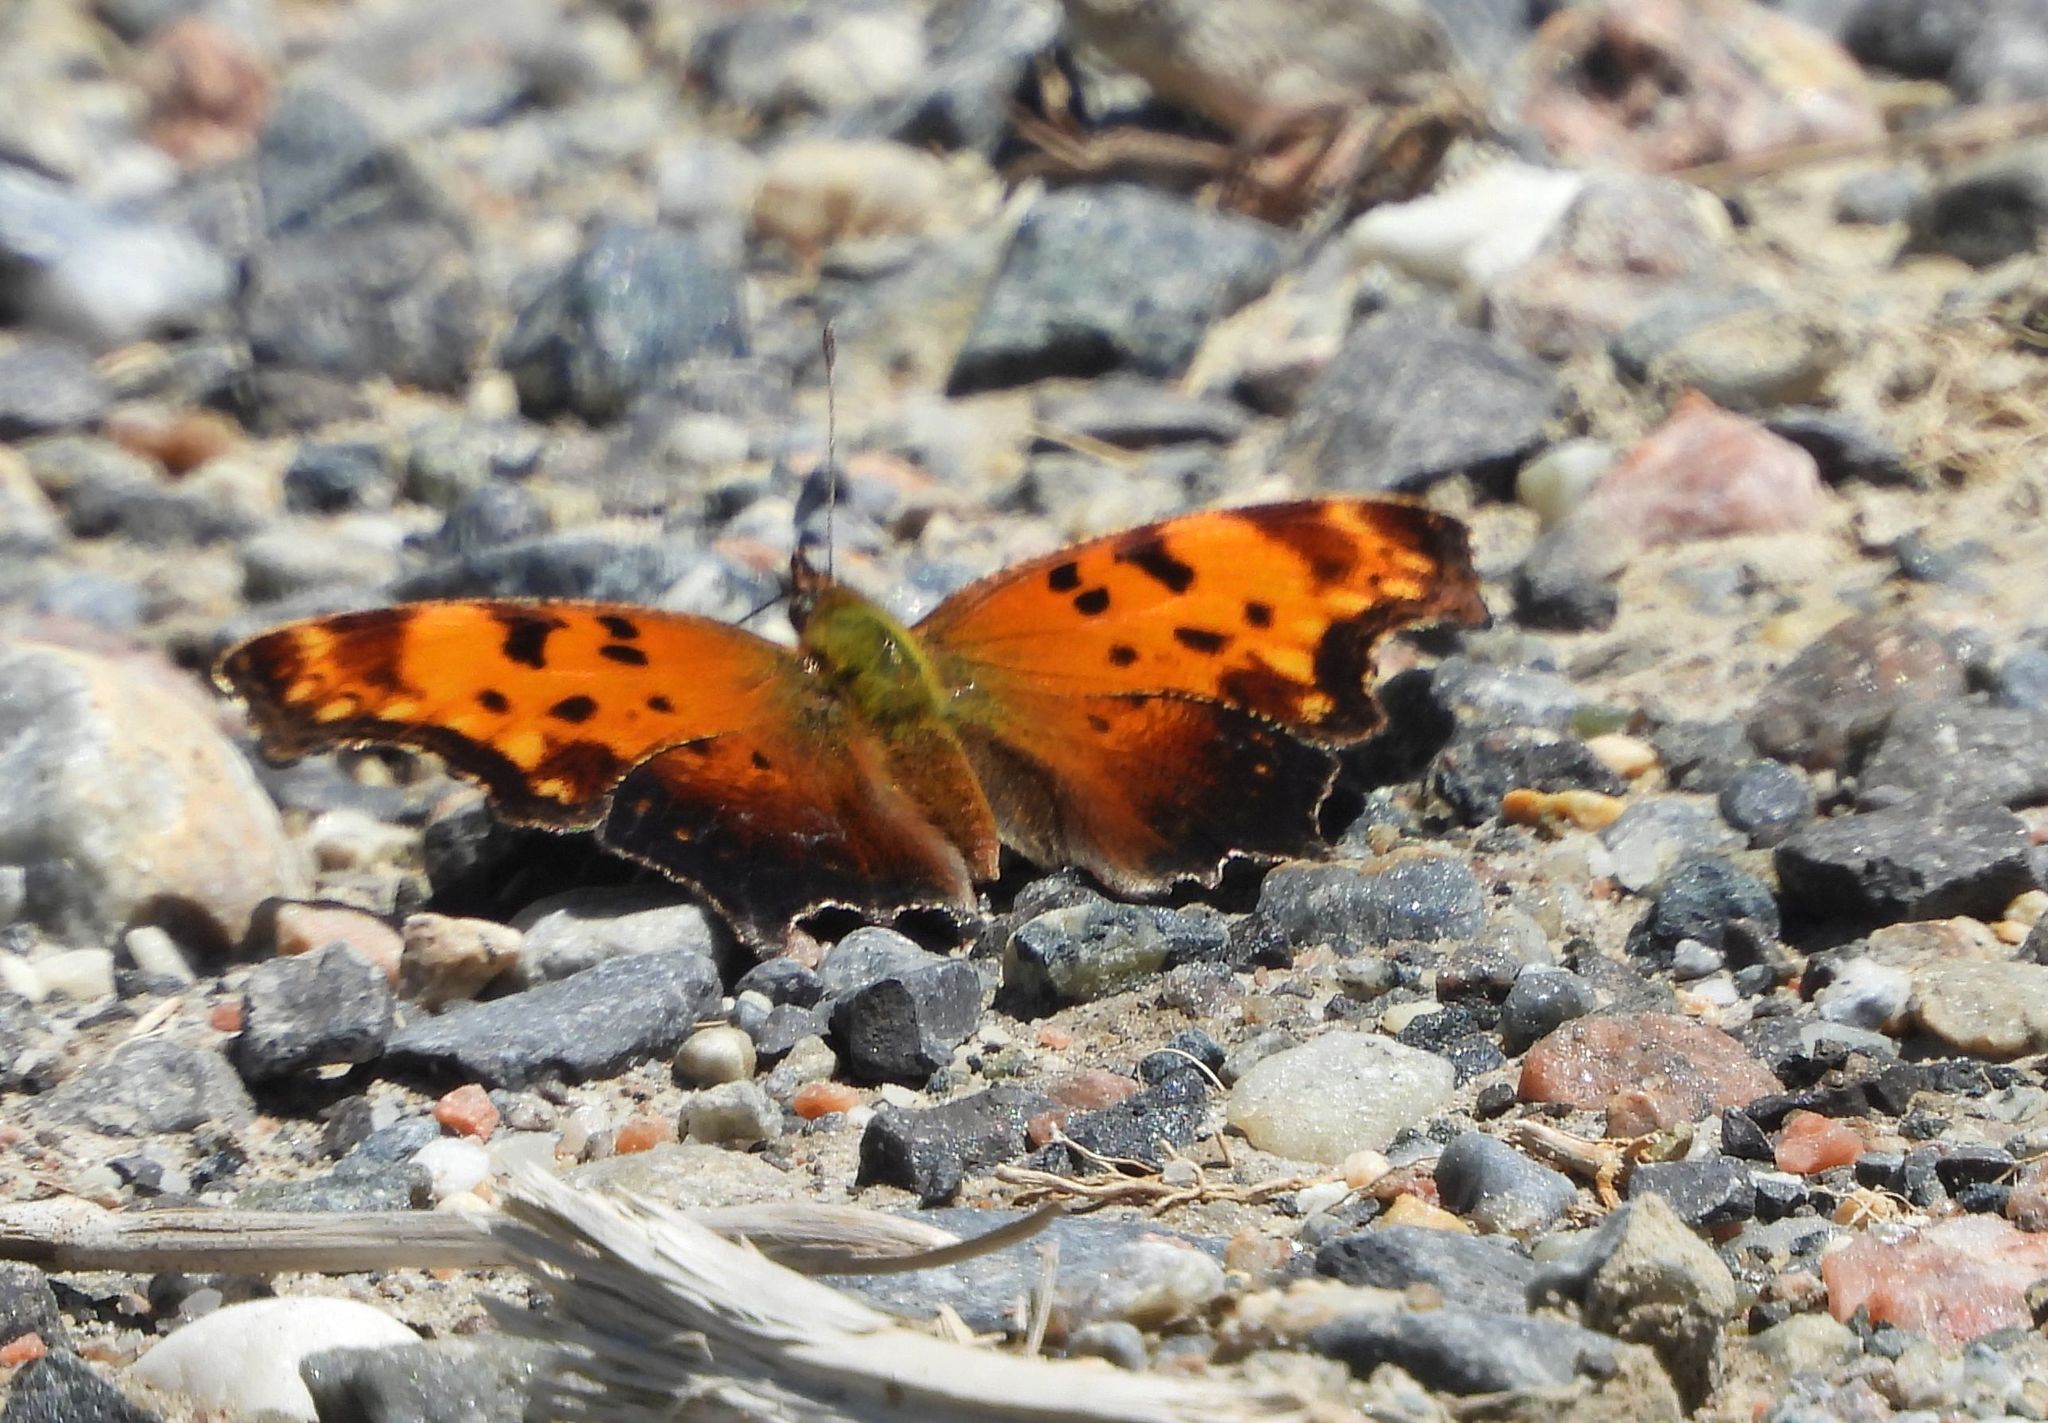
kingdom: Animalia
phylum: Arthropoda
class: Insecta
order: Lepidoptera
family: Nymphalidae
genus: Polygonia
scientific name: Polygonia progne
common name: Gray comma
